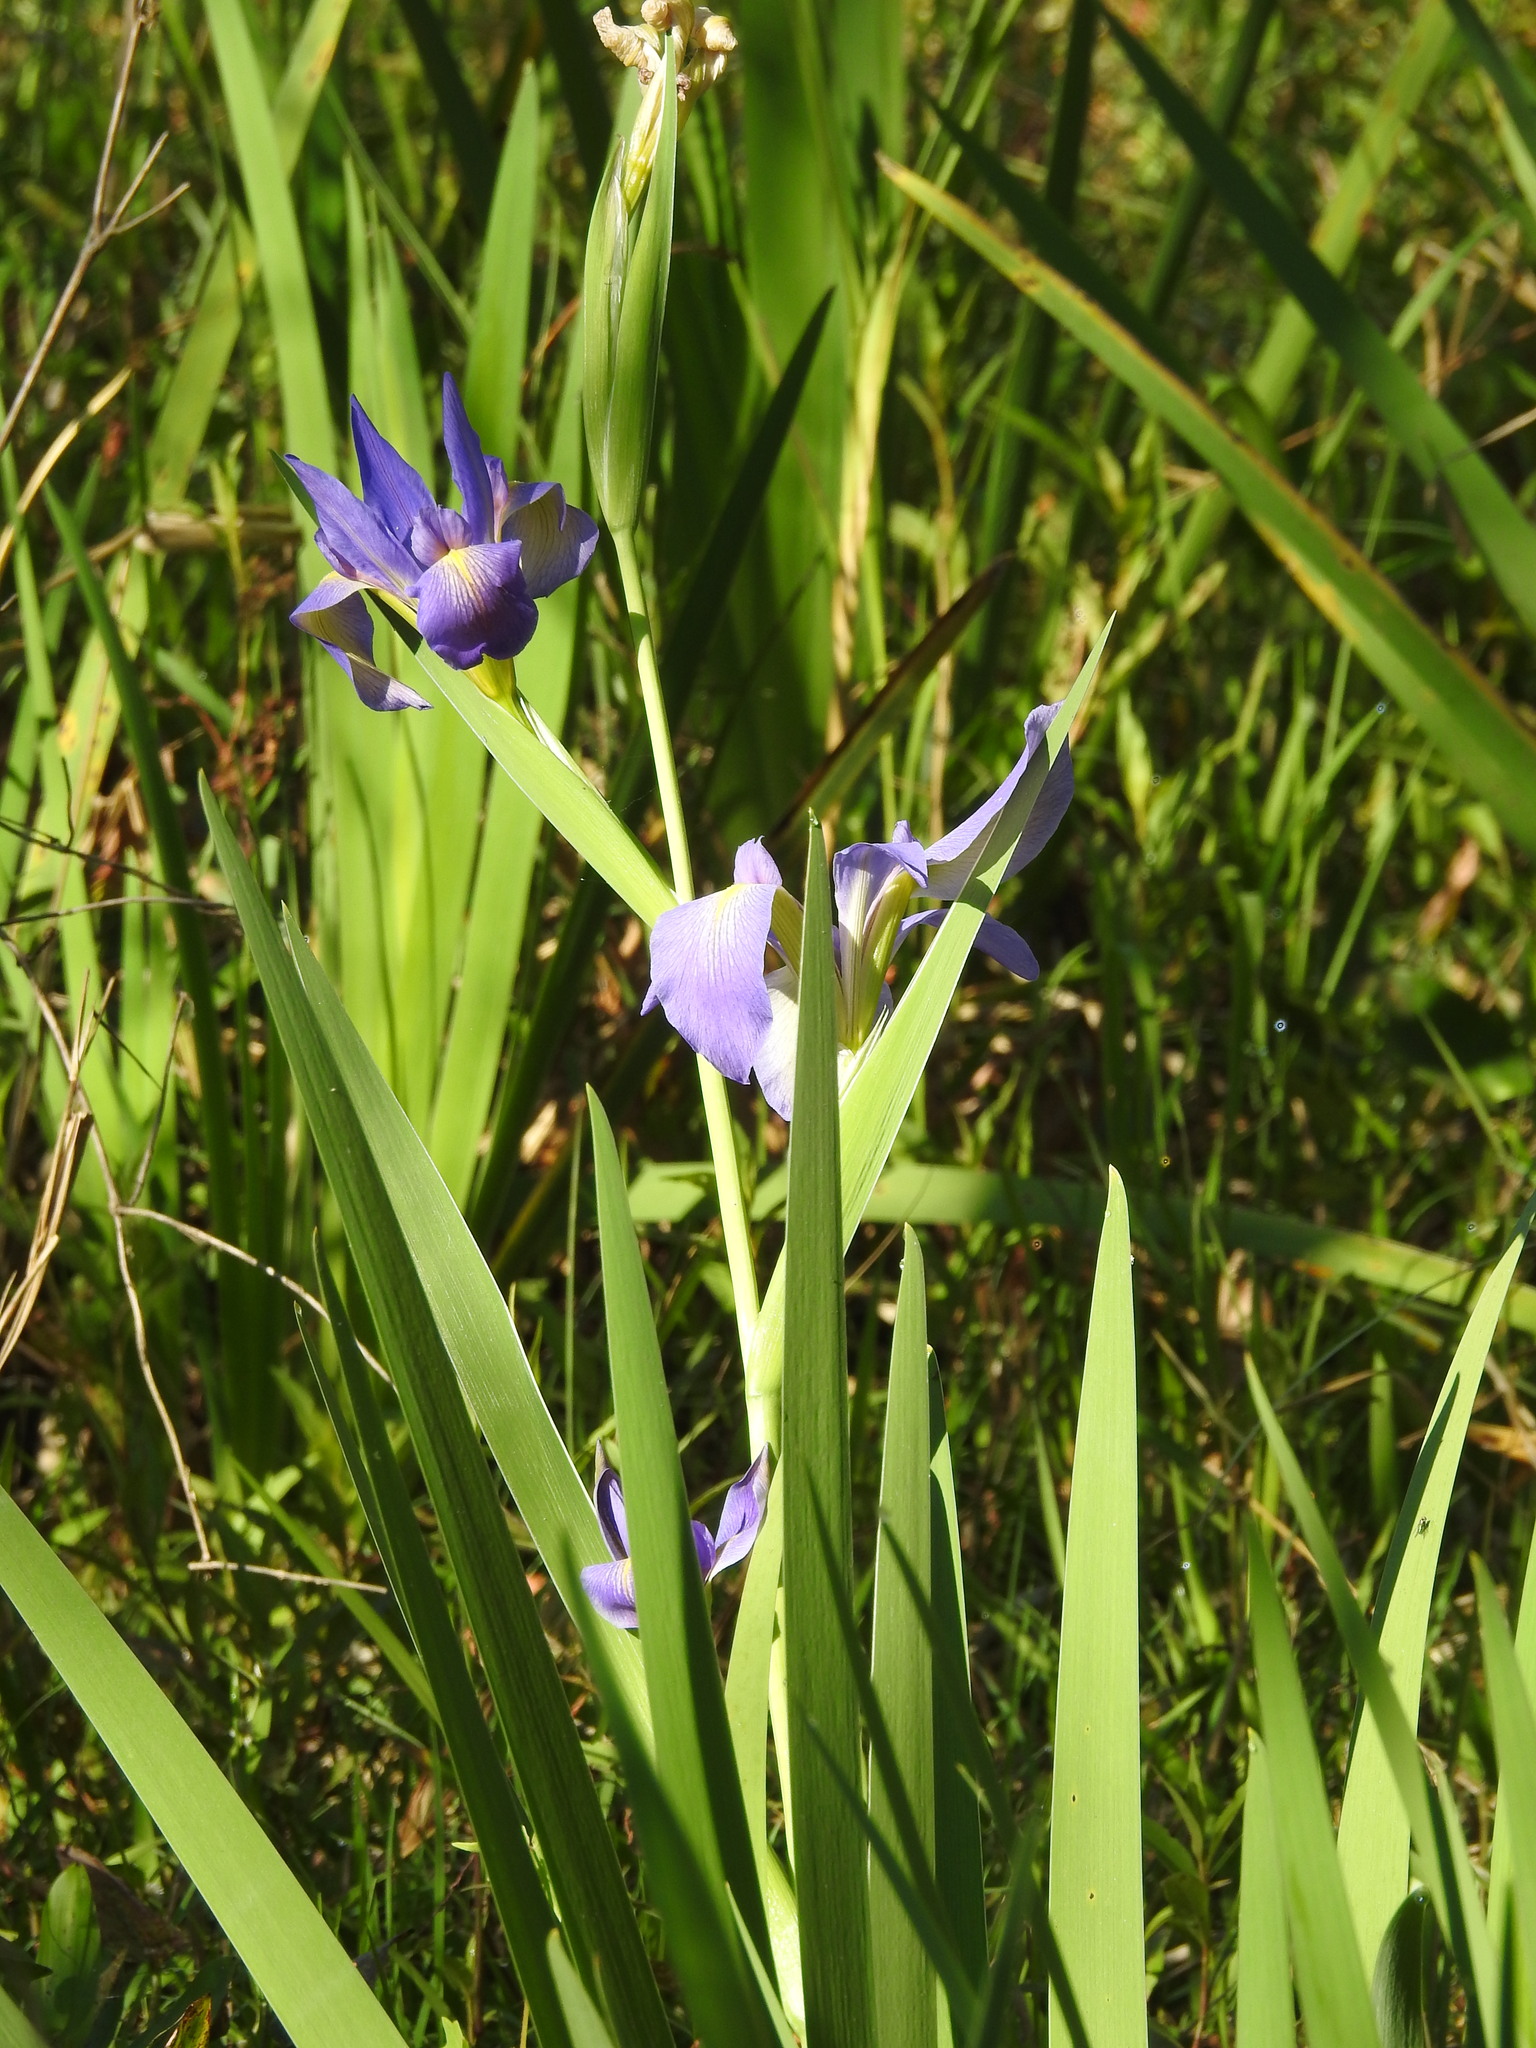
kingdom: Plantae
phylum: Tracheophyta
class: Liliopsida
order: Asparagales
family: Iridaceae
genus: Iris
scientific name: Iris savannarum
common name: Prairie iris
